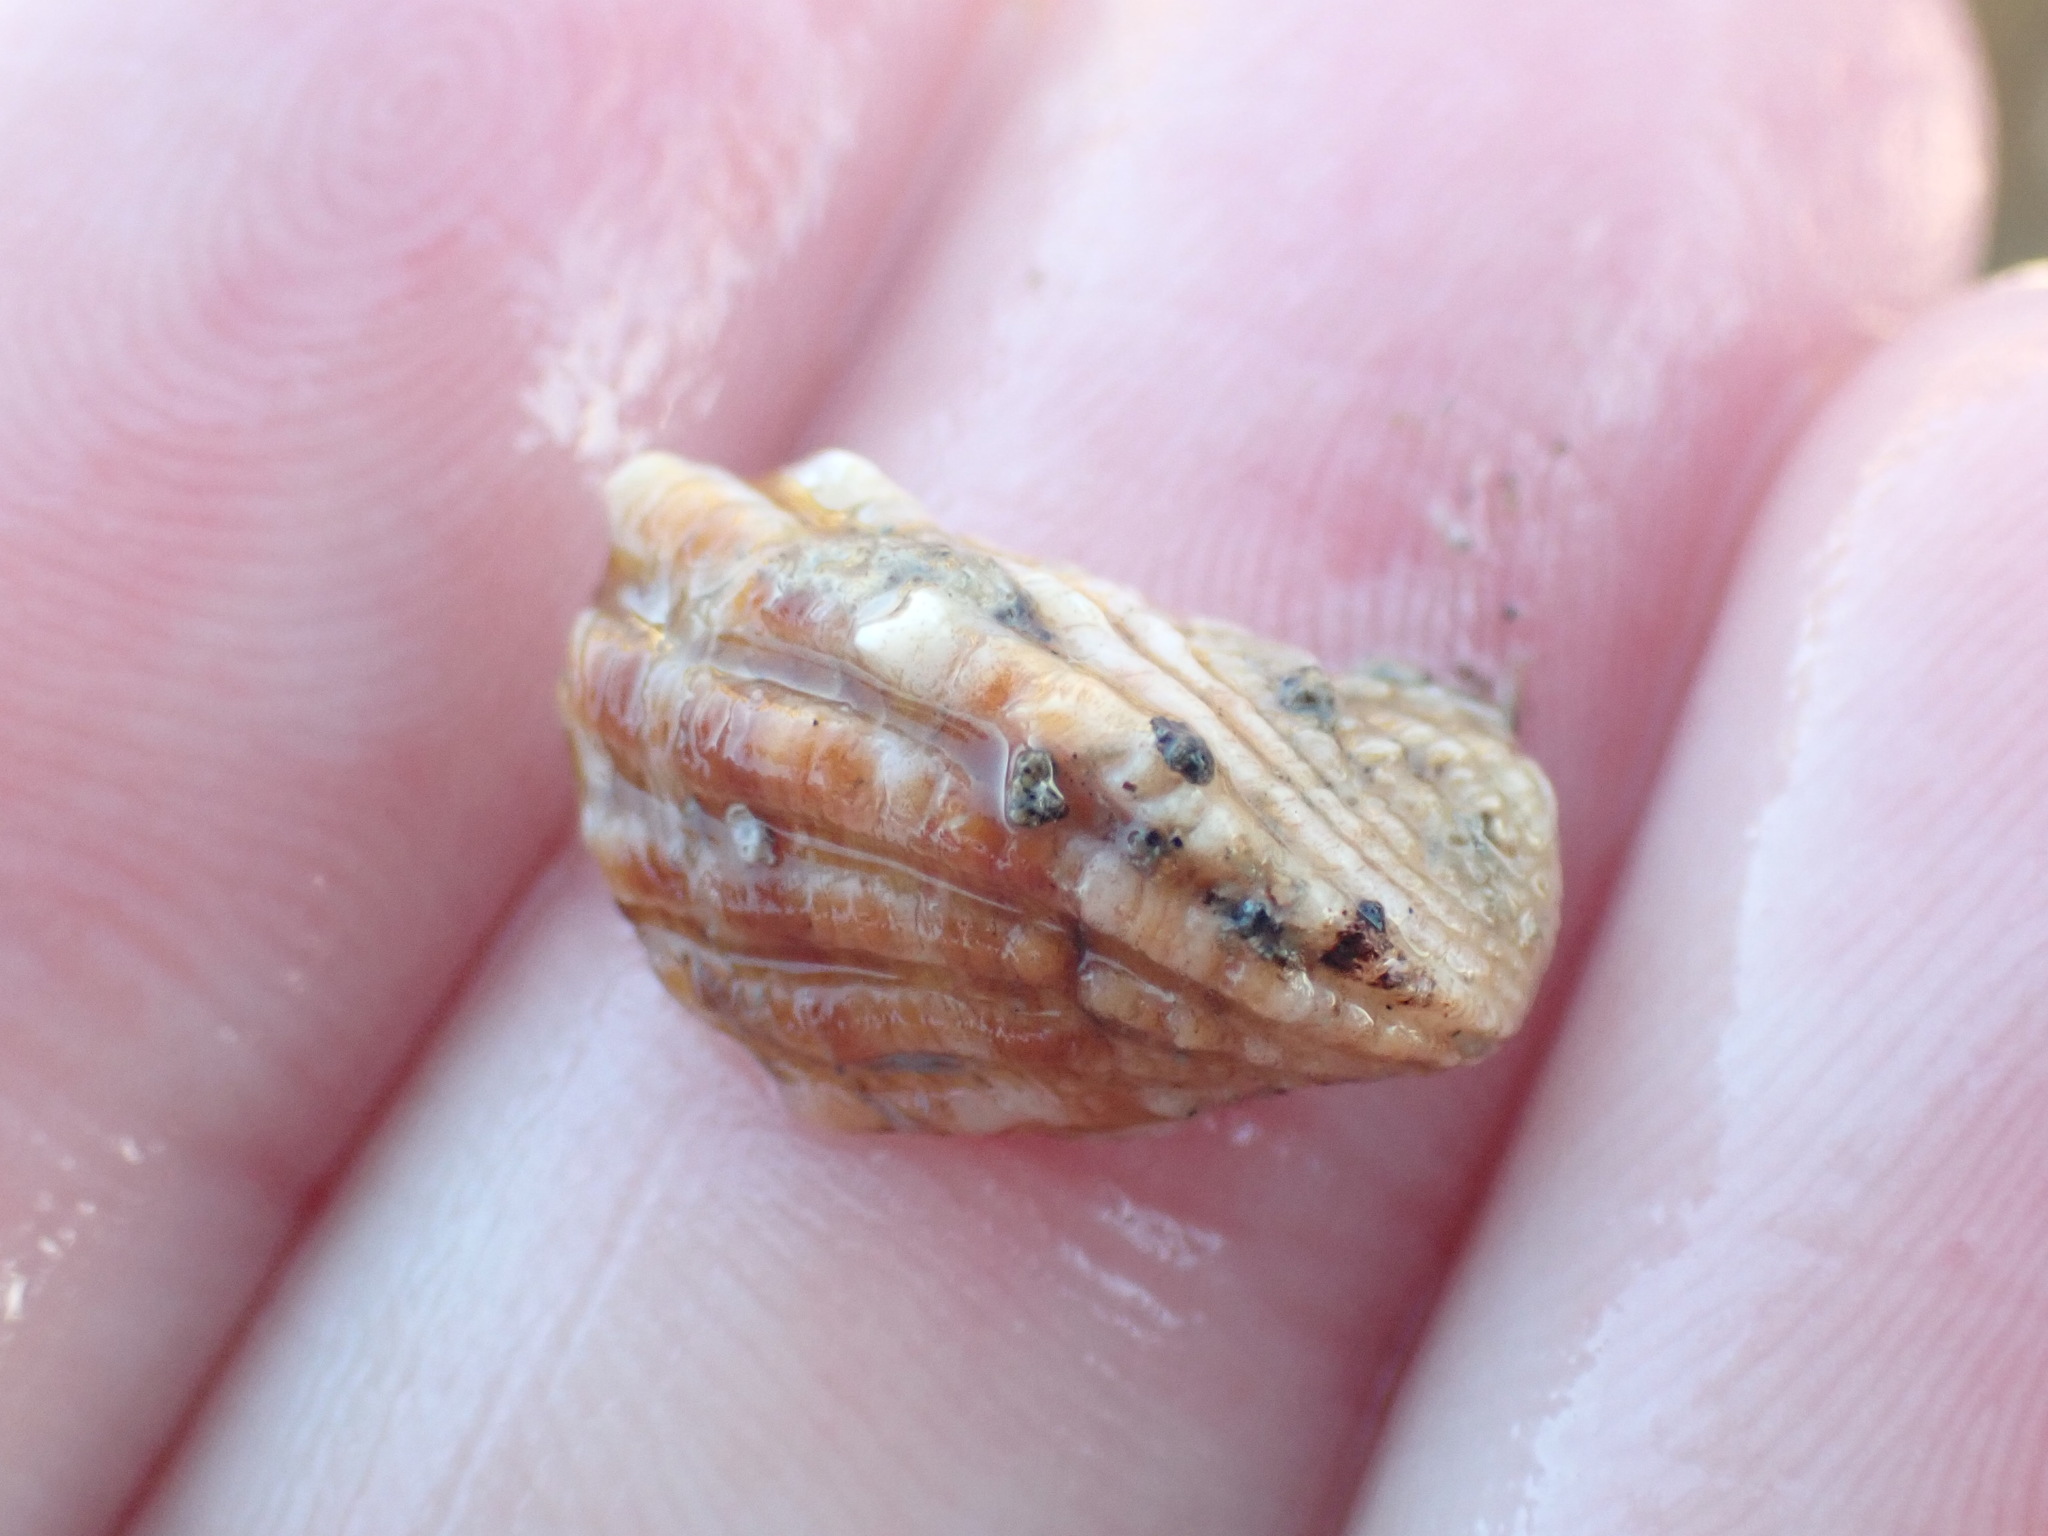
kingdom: Animalia
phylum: Mollusca
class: Bivalvia
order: Carditida
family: Carditidae
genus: Cardita
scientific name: Cardita distorta
